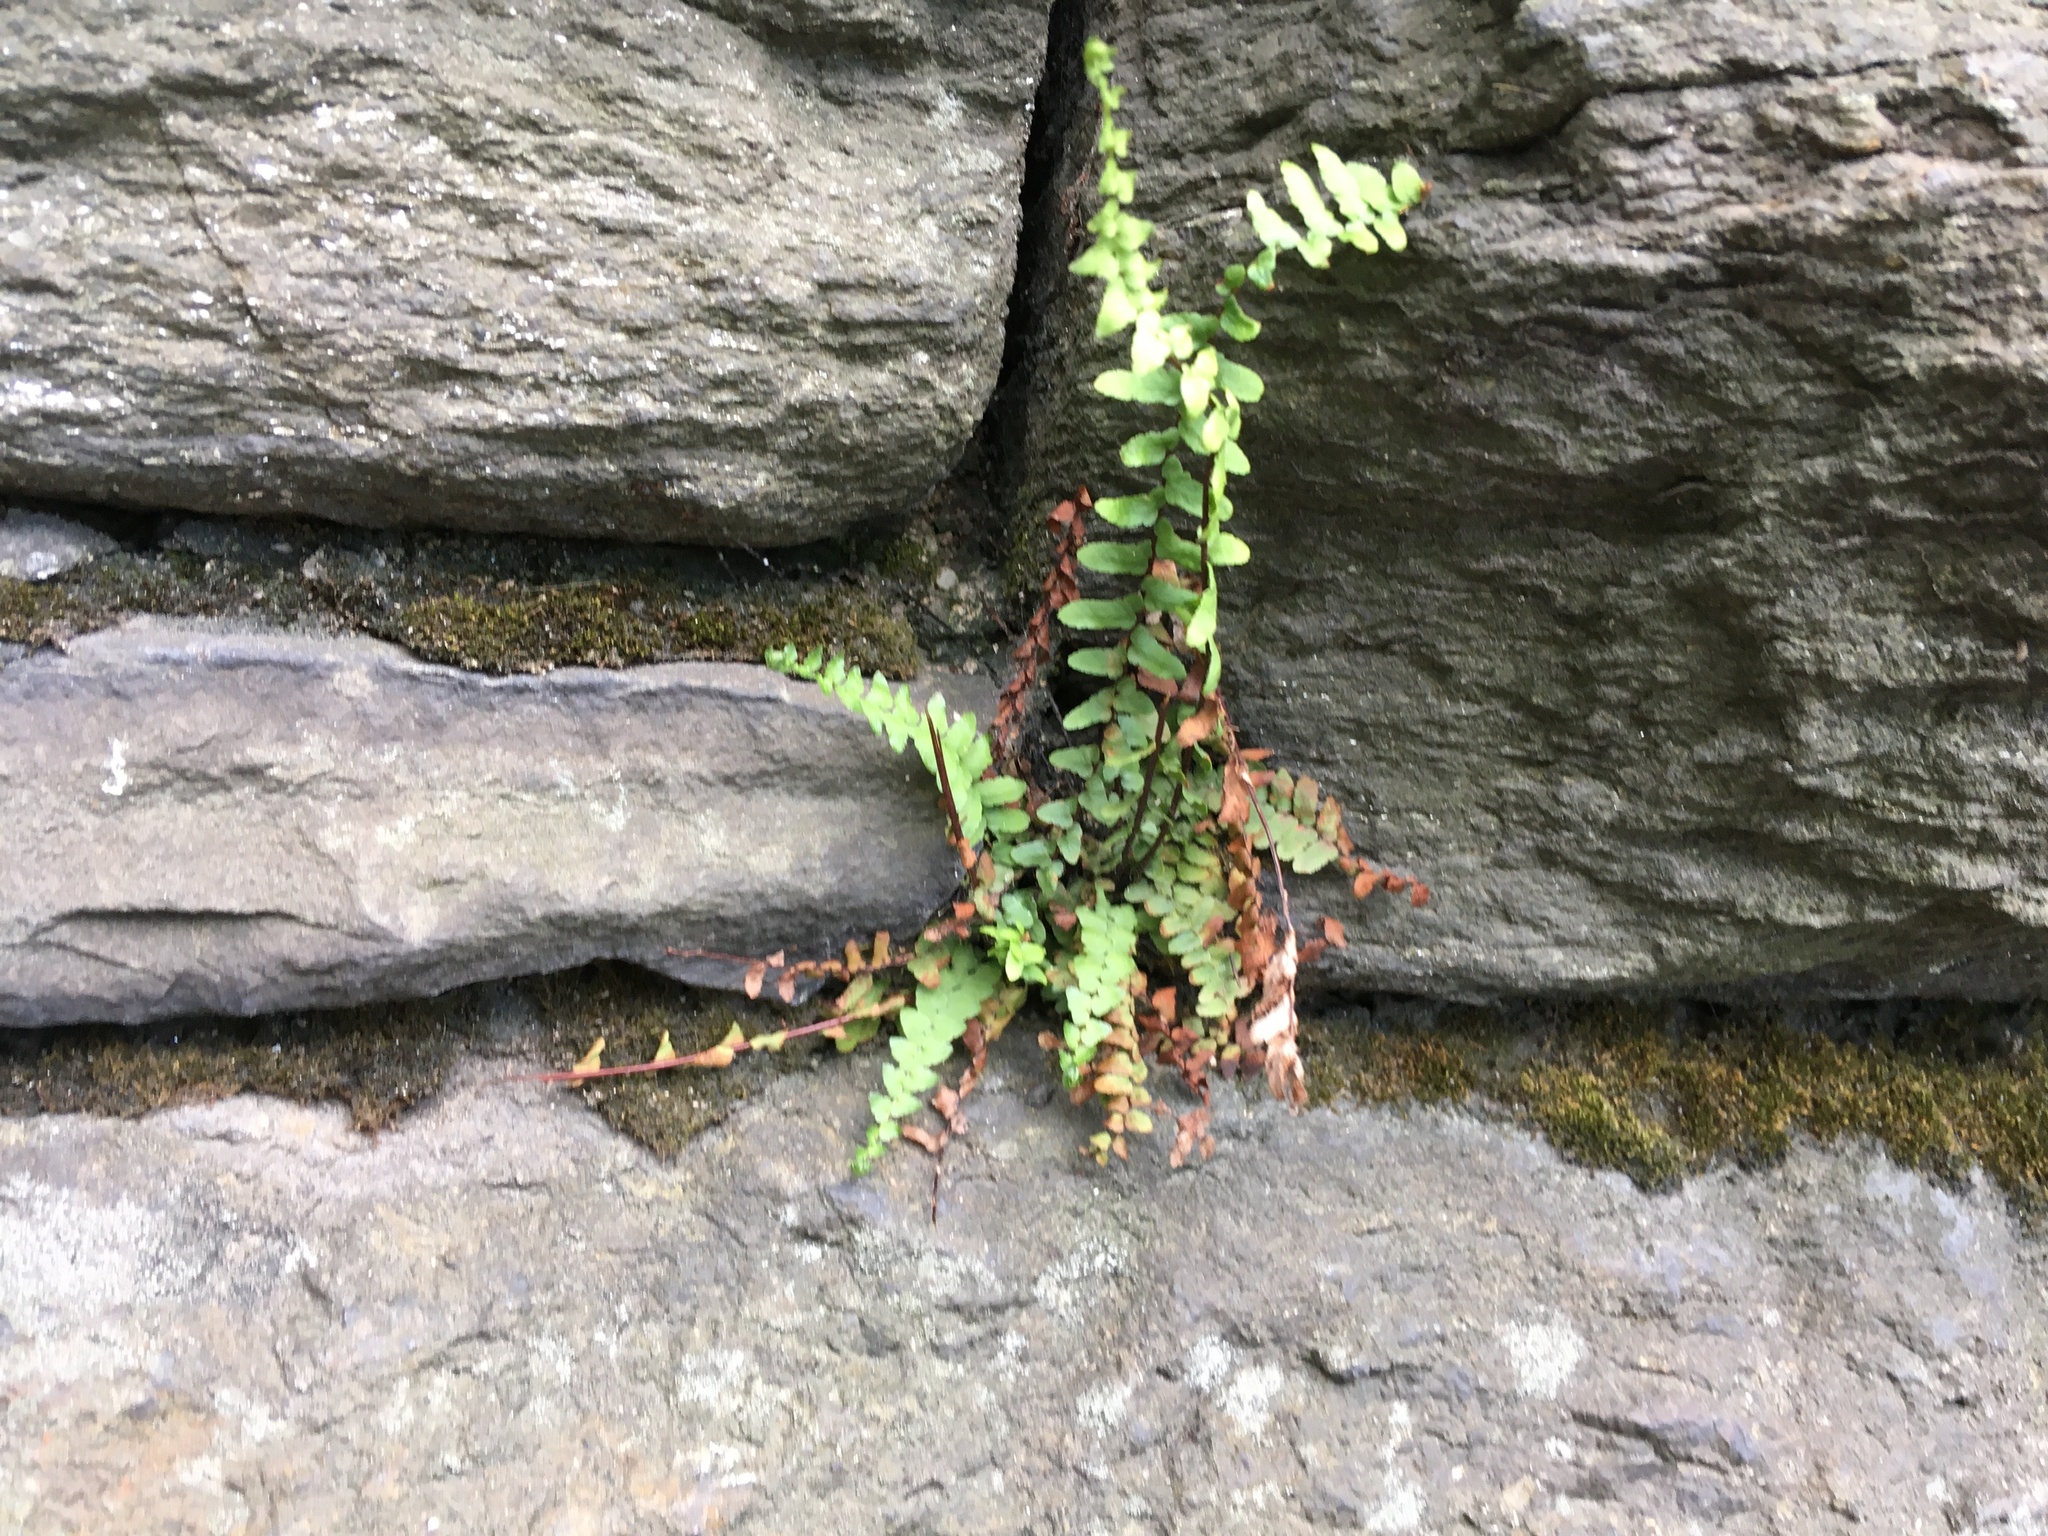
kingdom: Plantae
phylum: Tracheophyta
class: Polypodiopsida
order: Polypodiales
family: Aspleniaceae
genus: Asplenium
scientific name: Asplenium platyneuron
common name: Ebony spleenwort
